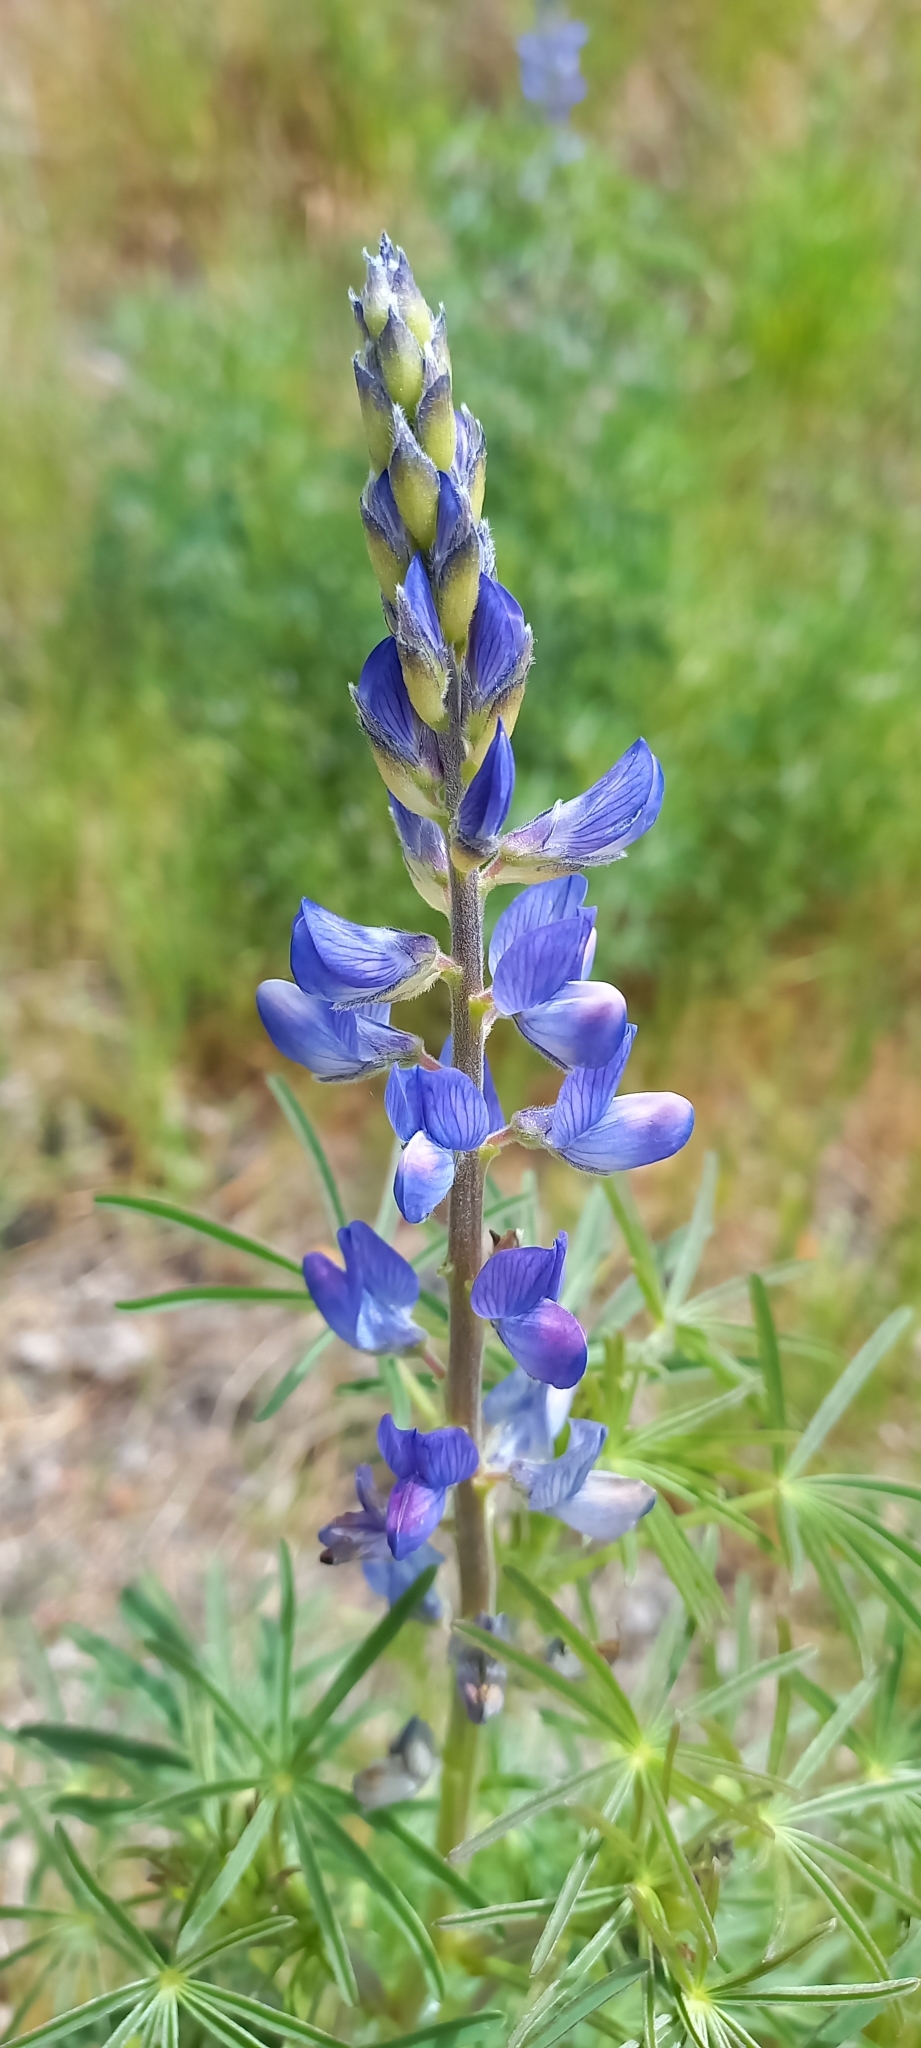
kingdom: Plantae
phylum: Tracheophyta
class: Magnoliopsida
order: Fabales
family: Fabaceae
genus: Lupinus
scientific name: Lupinus angustifolius
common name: Narrow-leaved lupin
